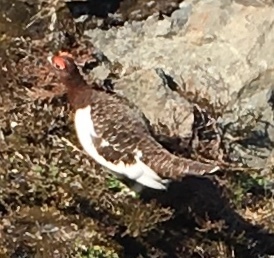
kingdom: Animalia
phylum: Chordata
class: Aves
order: Galliformes
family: Phasianidae
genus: Lagopus
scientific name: Lagopus lagopus
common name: Willow ptarmigan
